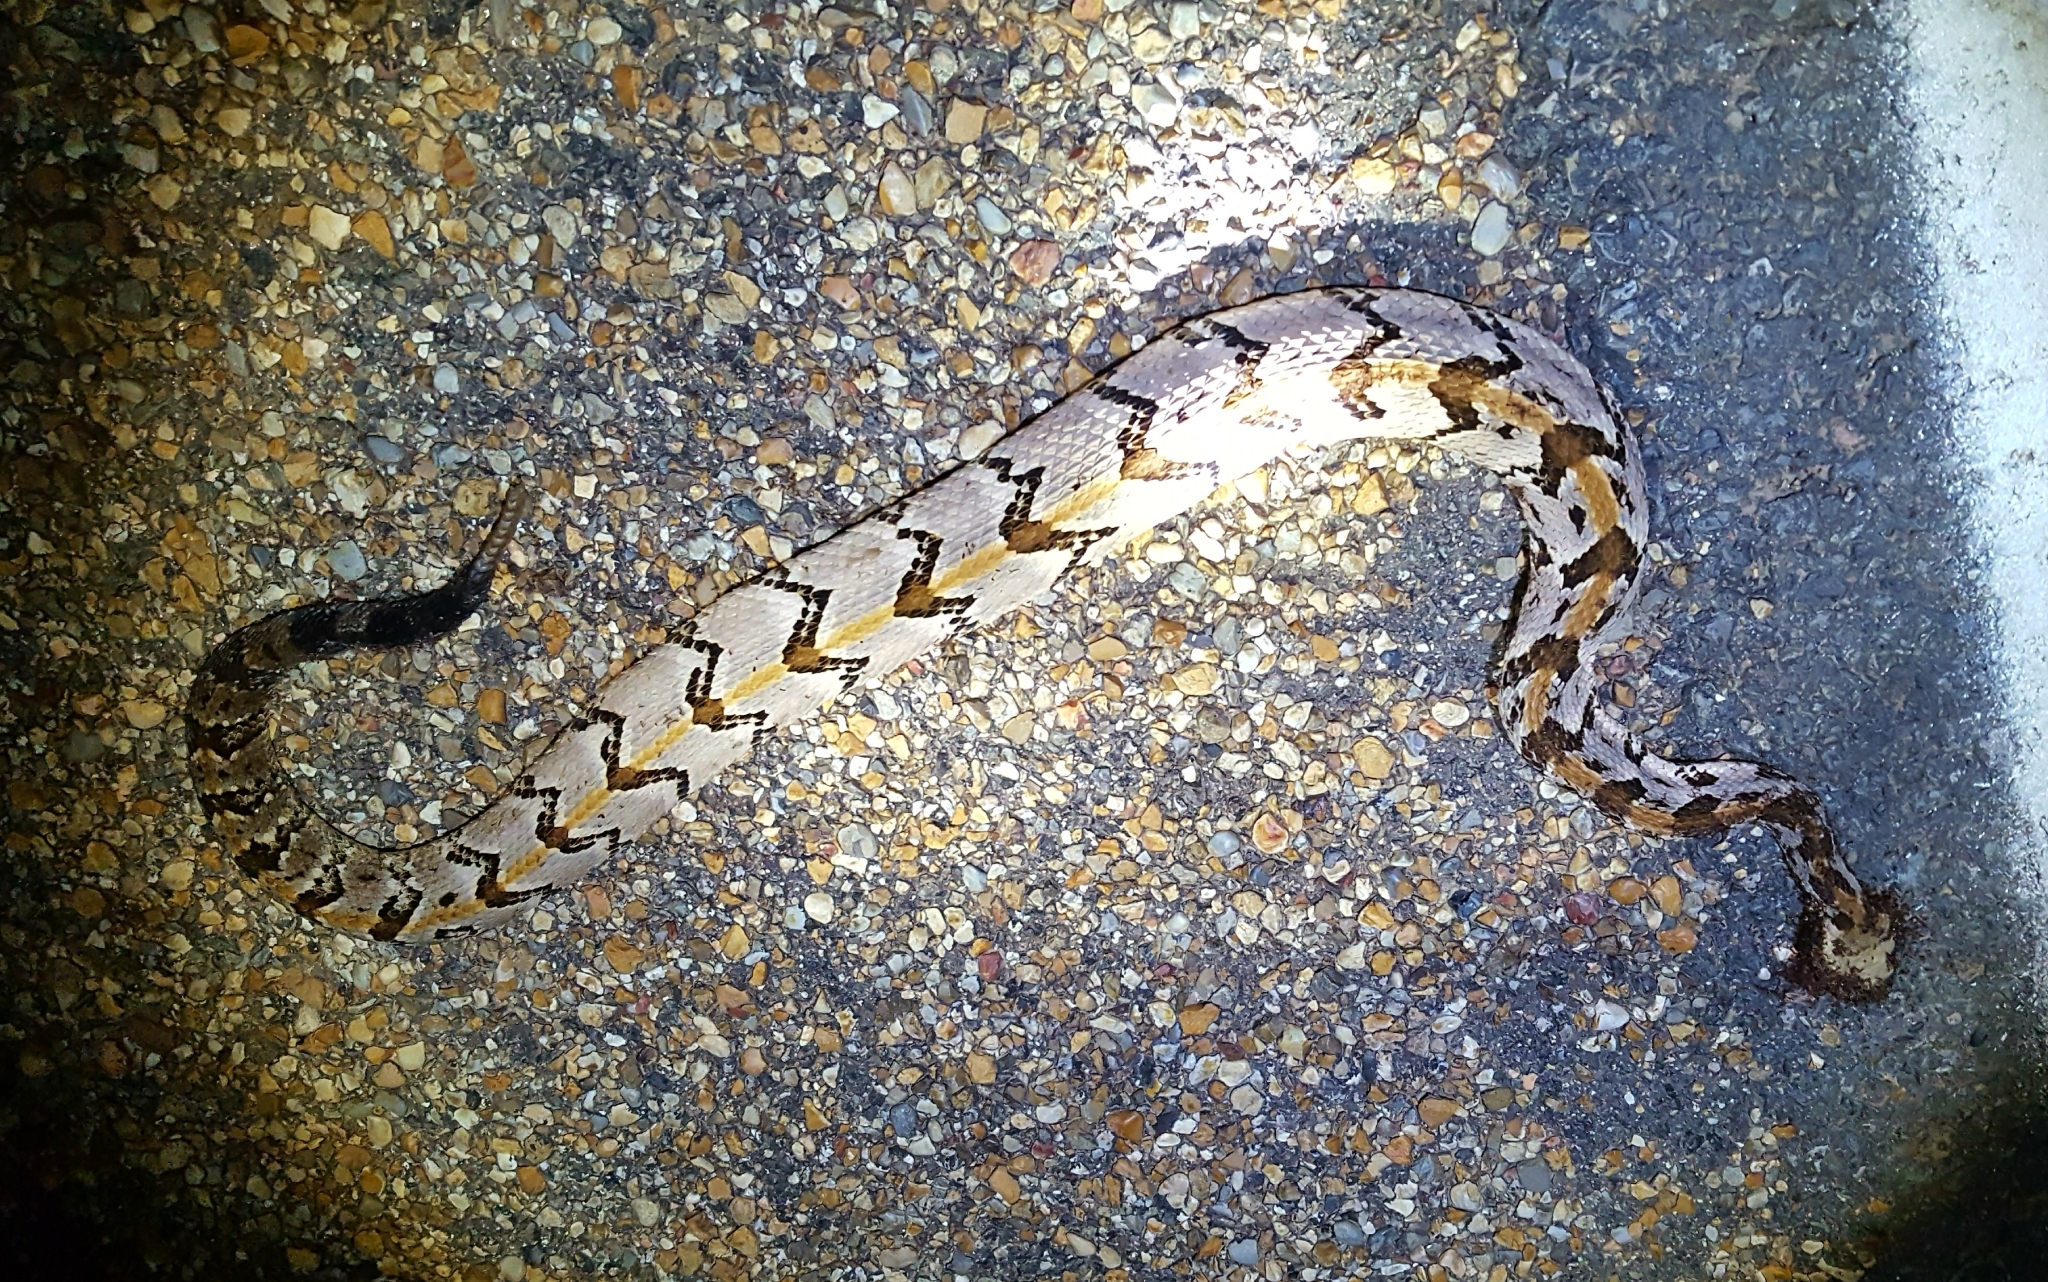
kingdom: Animalia
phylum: Chordata
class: Squamata
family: Viperidae
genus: Crotalus
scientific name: Crotalus horridus
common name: Timber rattlesnake
